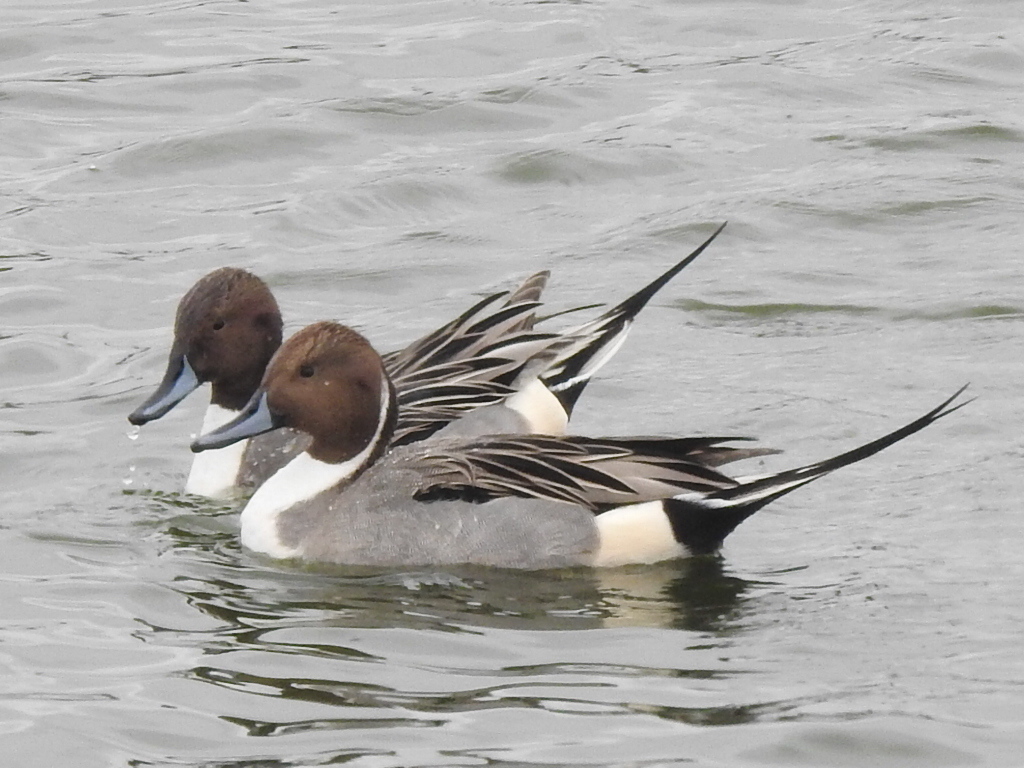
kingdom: Animalia
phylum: Chordata
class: Aves
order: Anseriformes
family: Anatidae
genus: Anas
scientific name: Anas acuta
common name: Northern pintail
